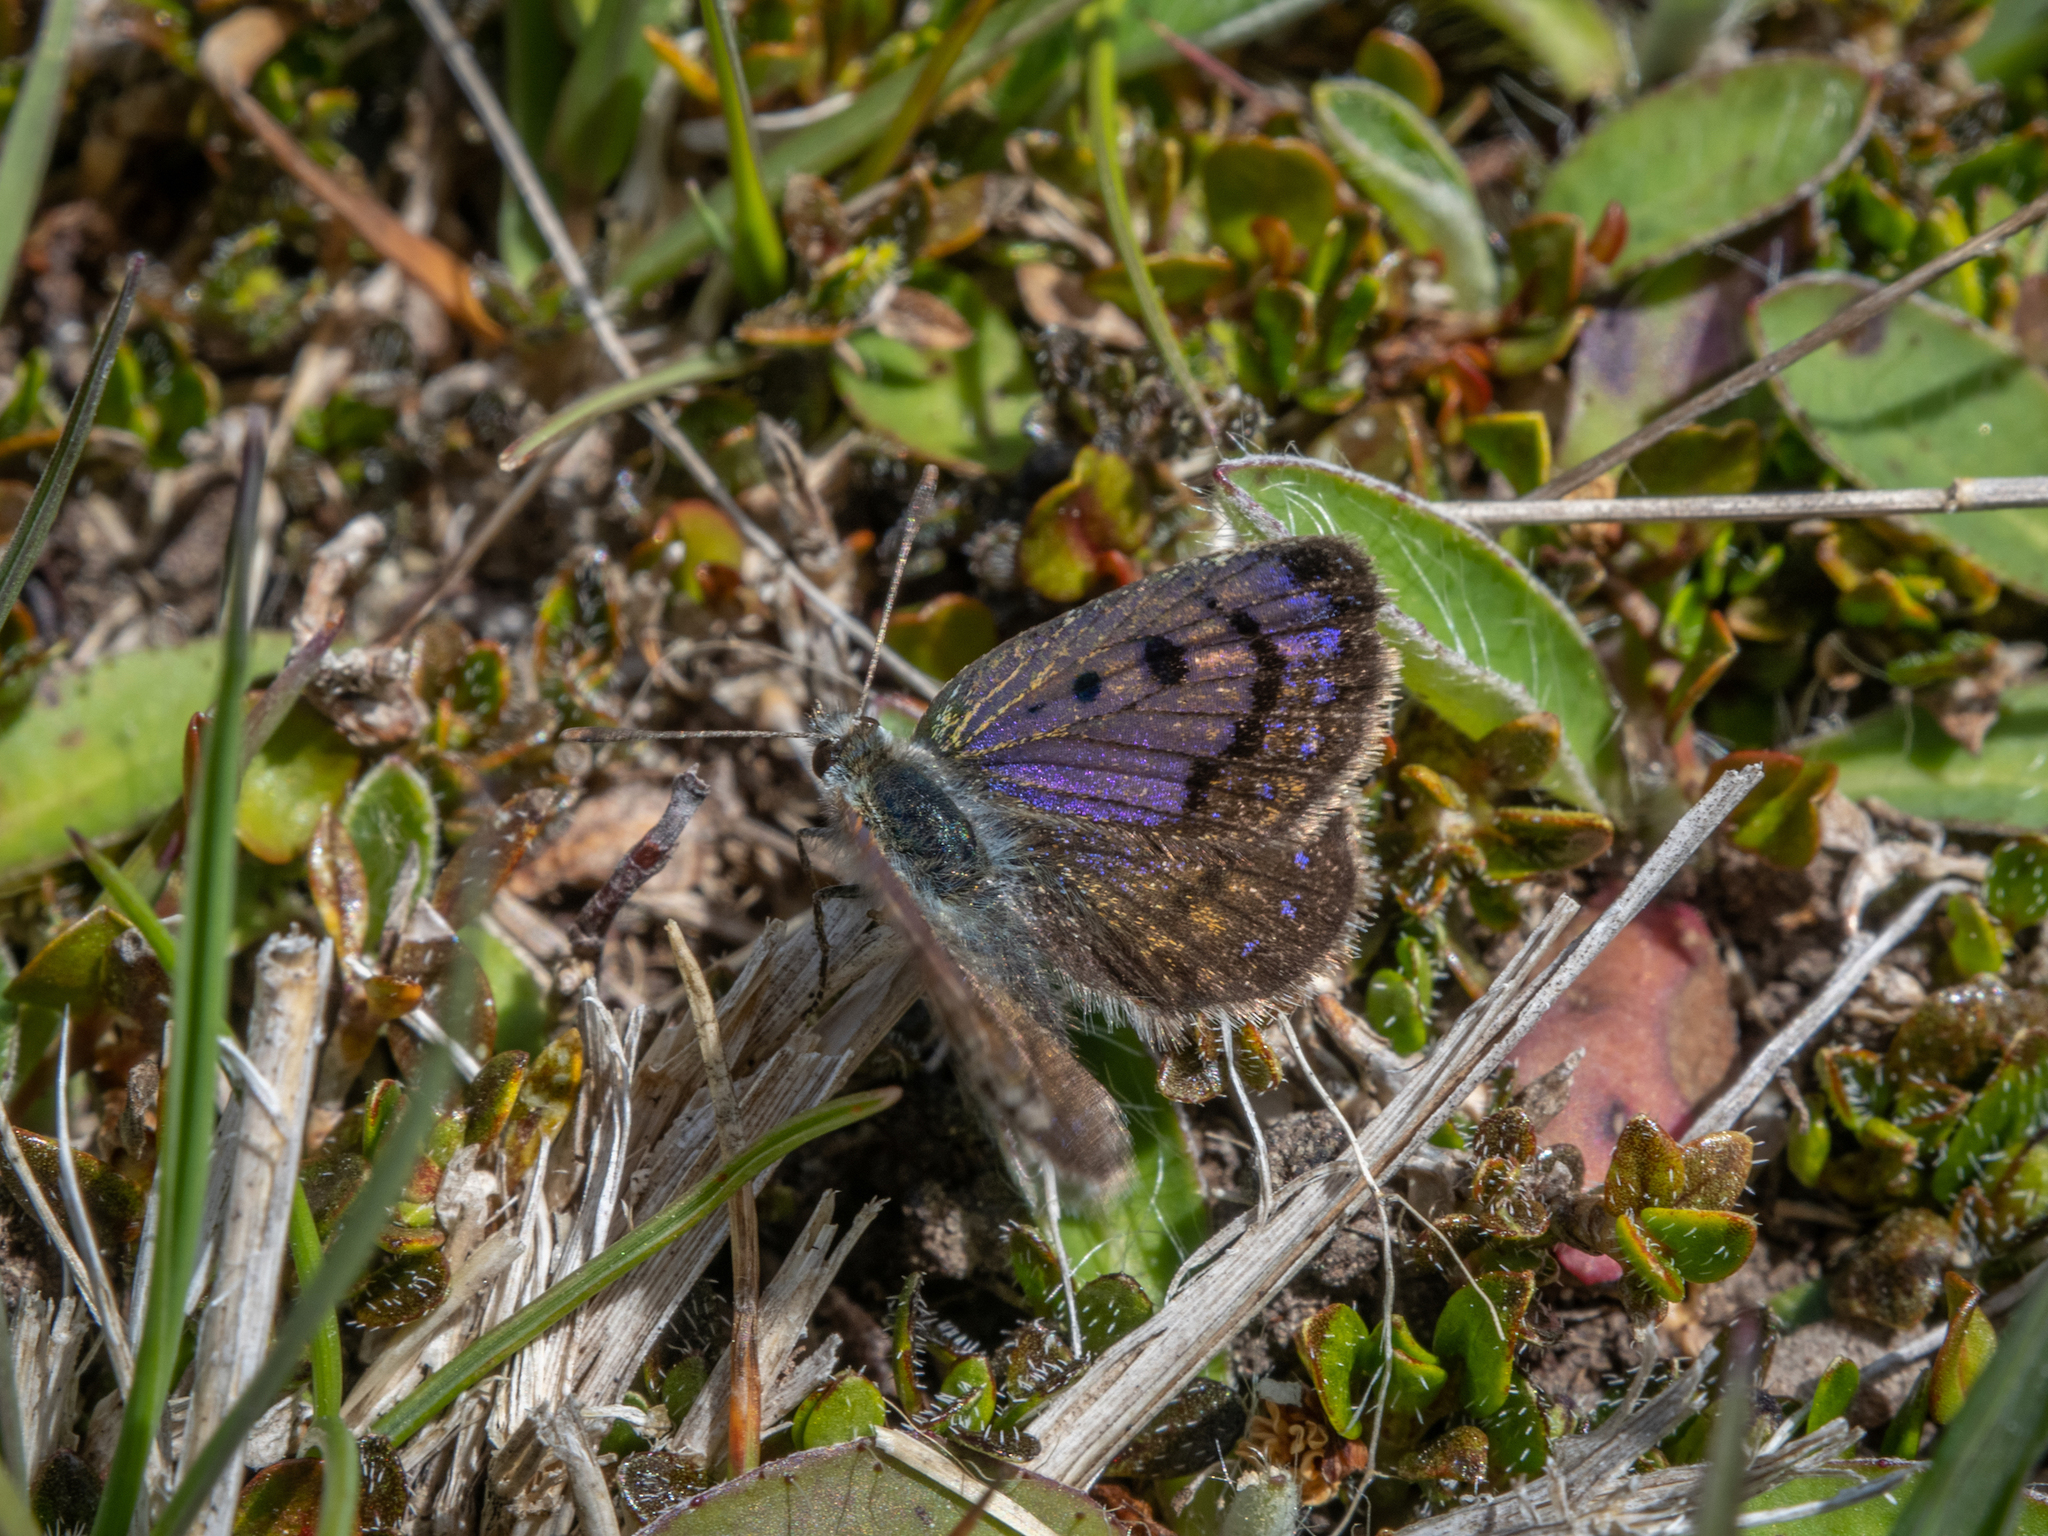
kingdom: Animalia
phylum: Arthropoda
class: Insecta
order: Lepidoptera
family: Lycaenidae
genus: Lycaena
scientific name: Lycaena tama
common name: Canterbury alpine boulder copper
